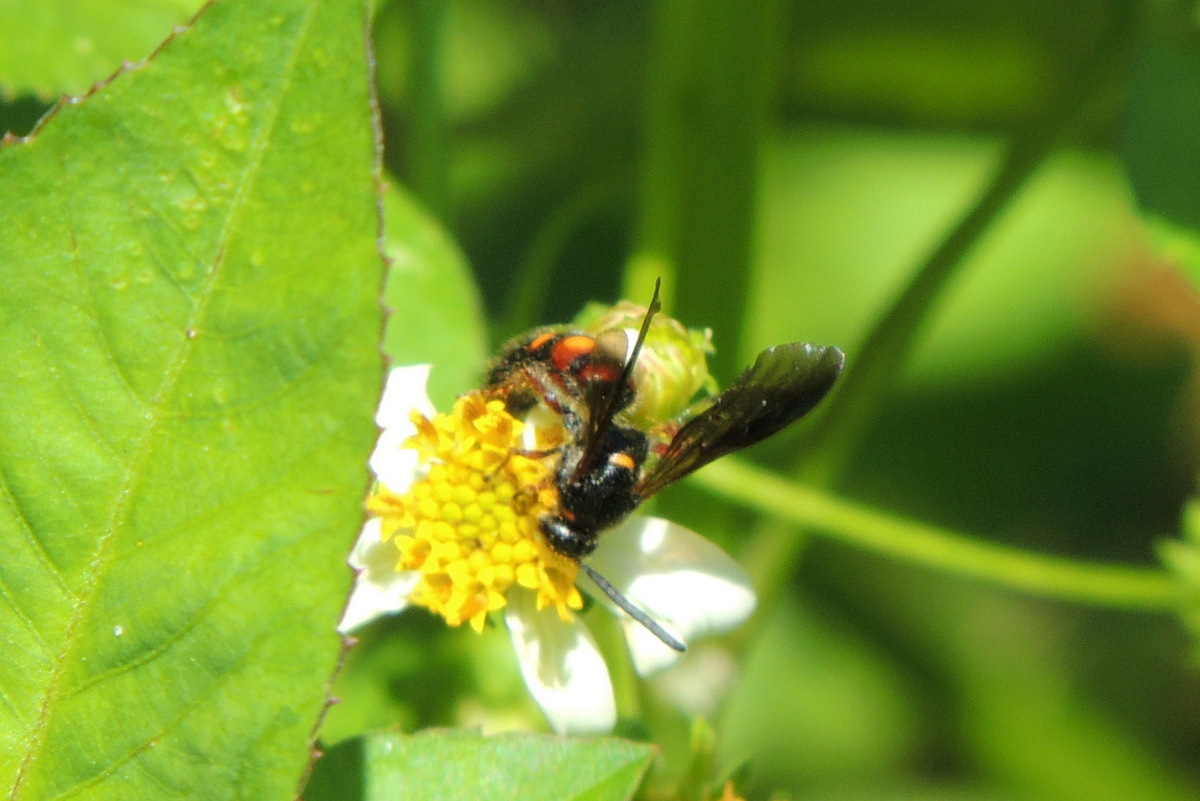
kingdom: Animalia
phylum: Arthropoda
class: Insecta
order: Hymenoptera
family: Scoliidae
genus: Scolia
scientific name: Scolia nobilitata
